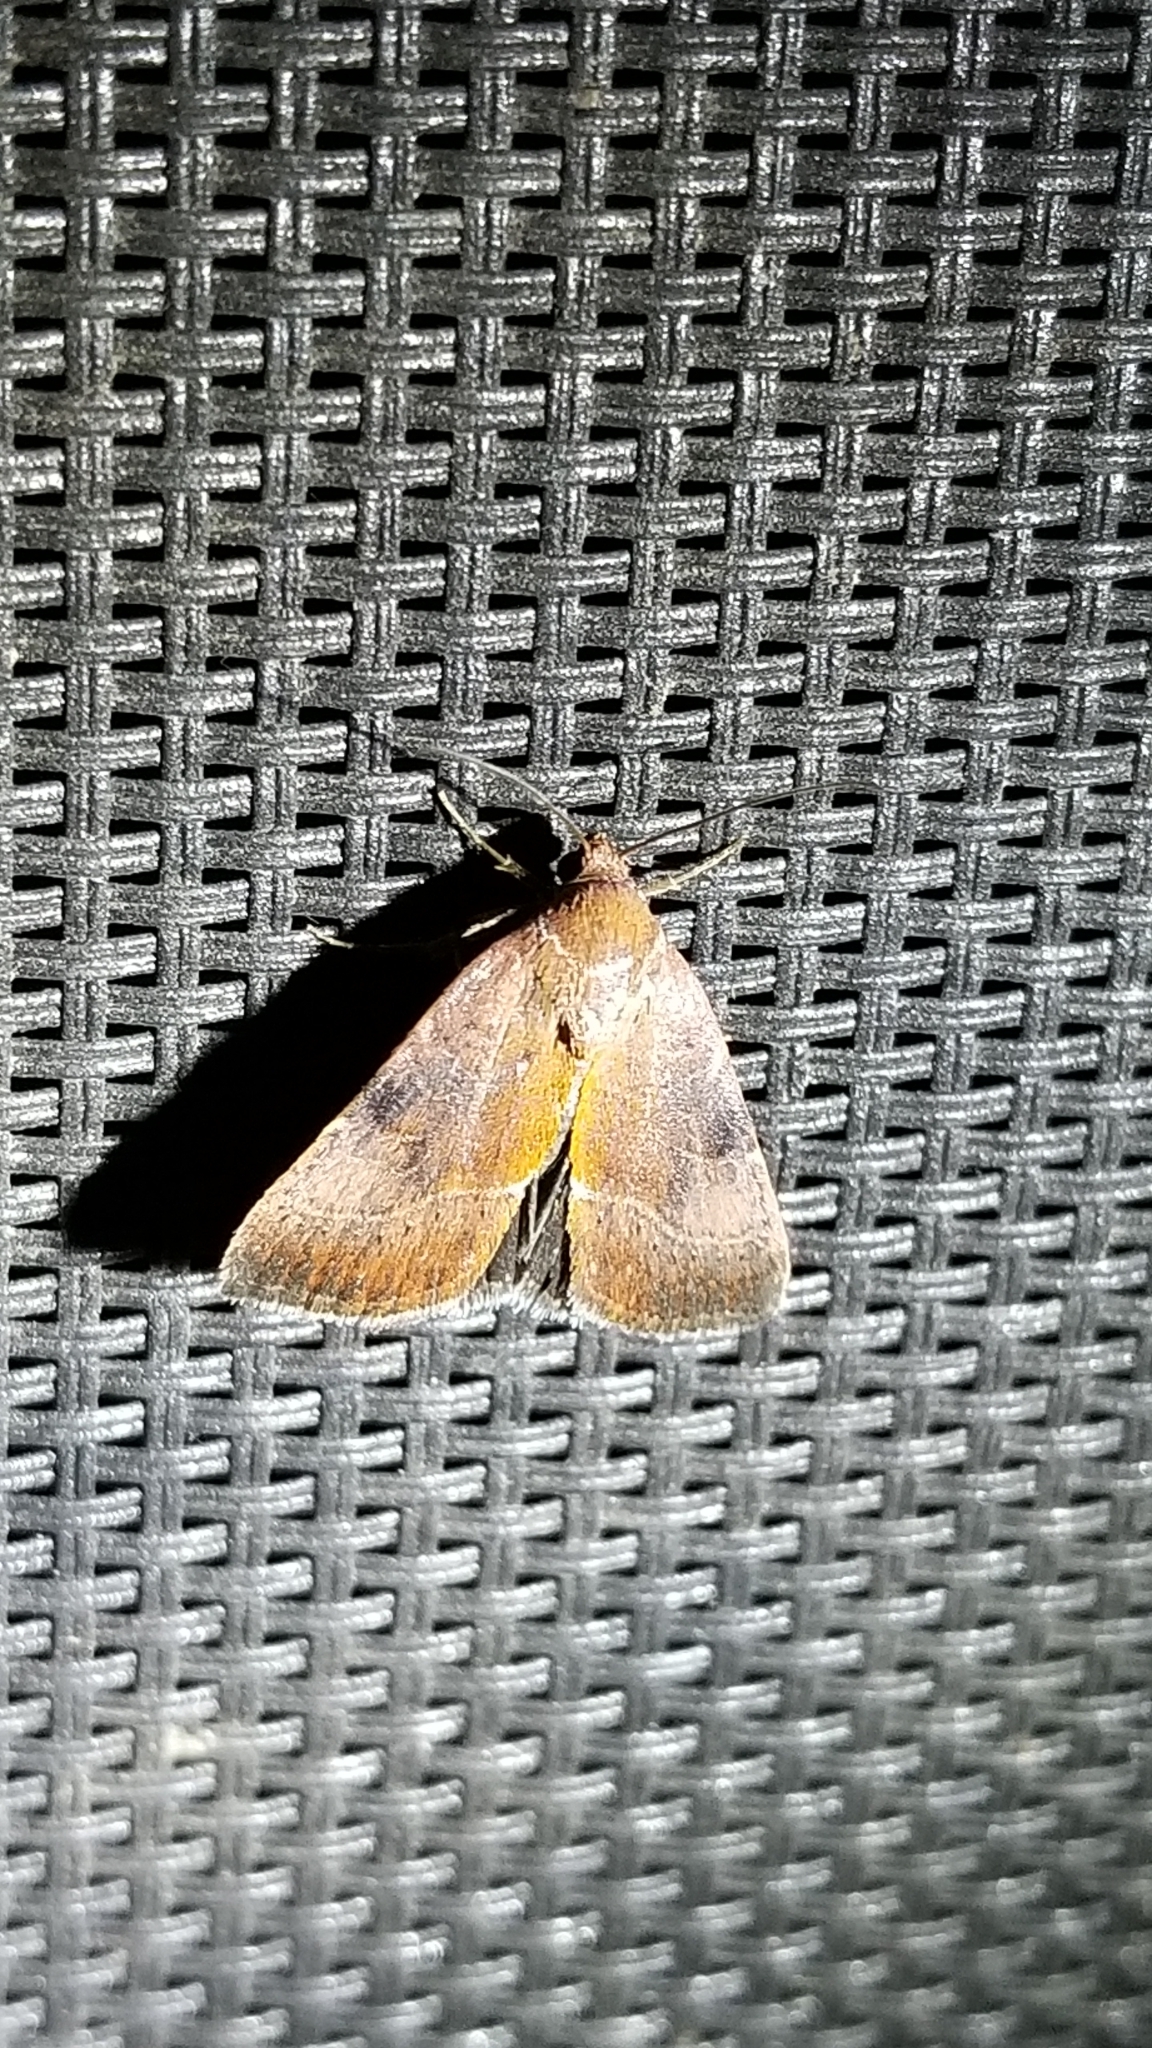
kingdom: Animalia
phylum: Arthropoda
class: Insecta
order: Lepidoptera
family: Noctuidae
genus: Galgula
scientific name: Galgula partita
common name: Wedgeling
